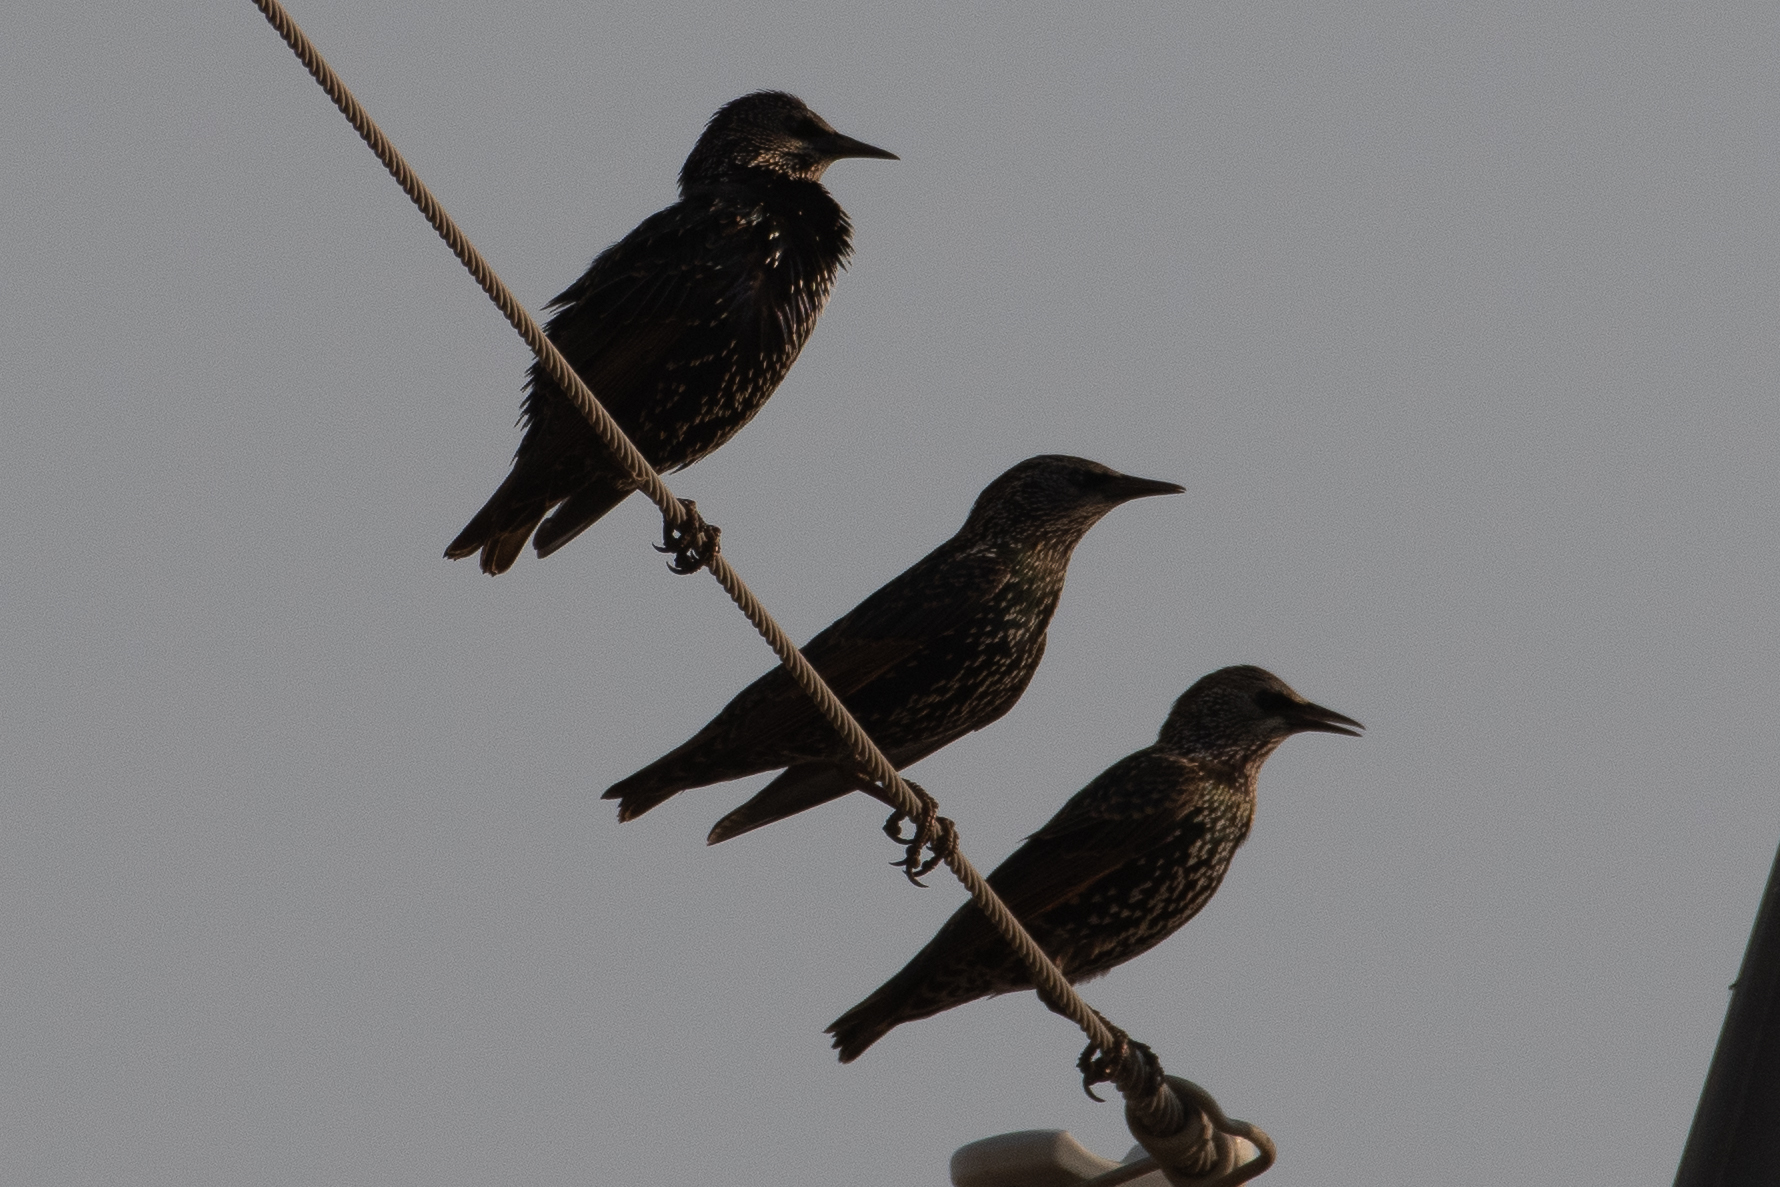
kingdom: Animalia
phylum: Chordata
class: Aves
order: Passeriformes
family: Sturnidae
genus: Sturnus
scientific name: Sturnus vulgaris
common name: Common starling
